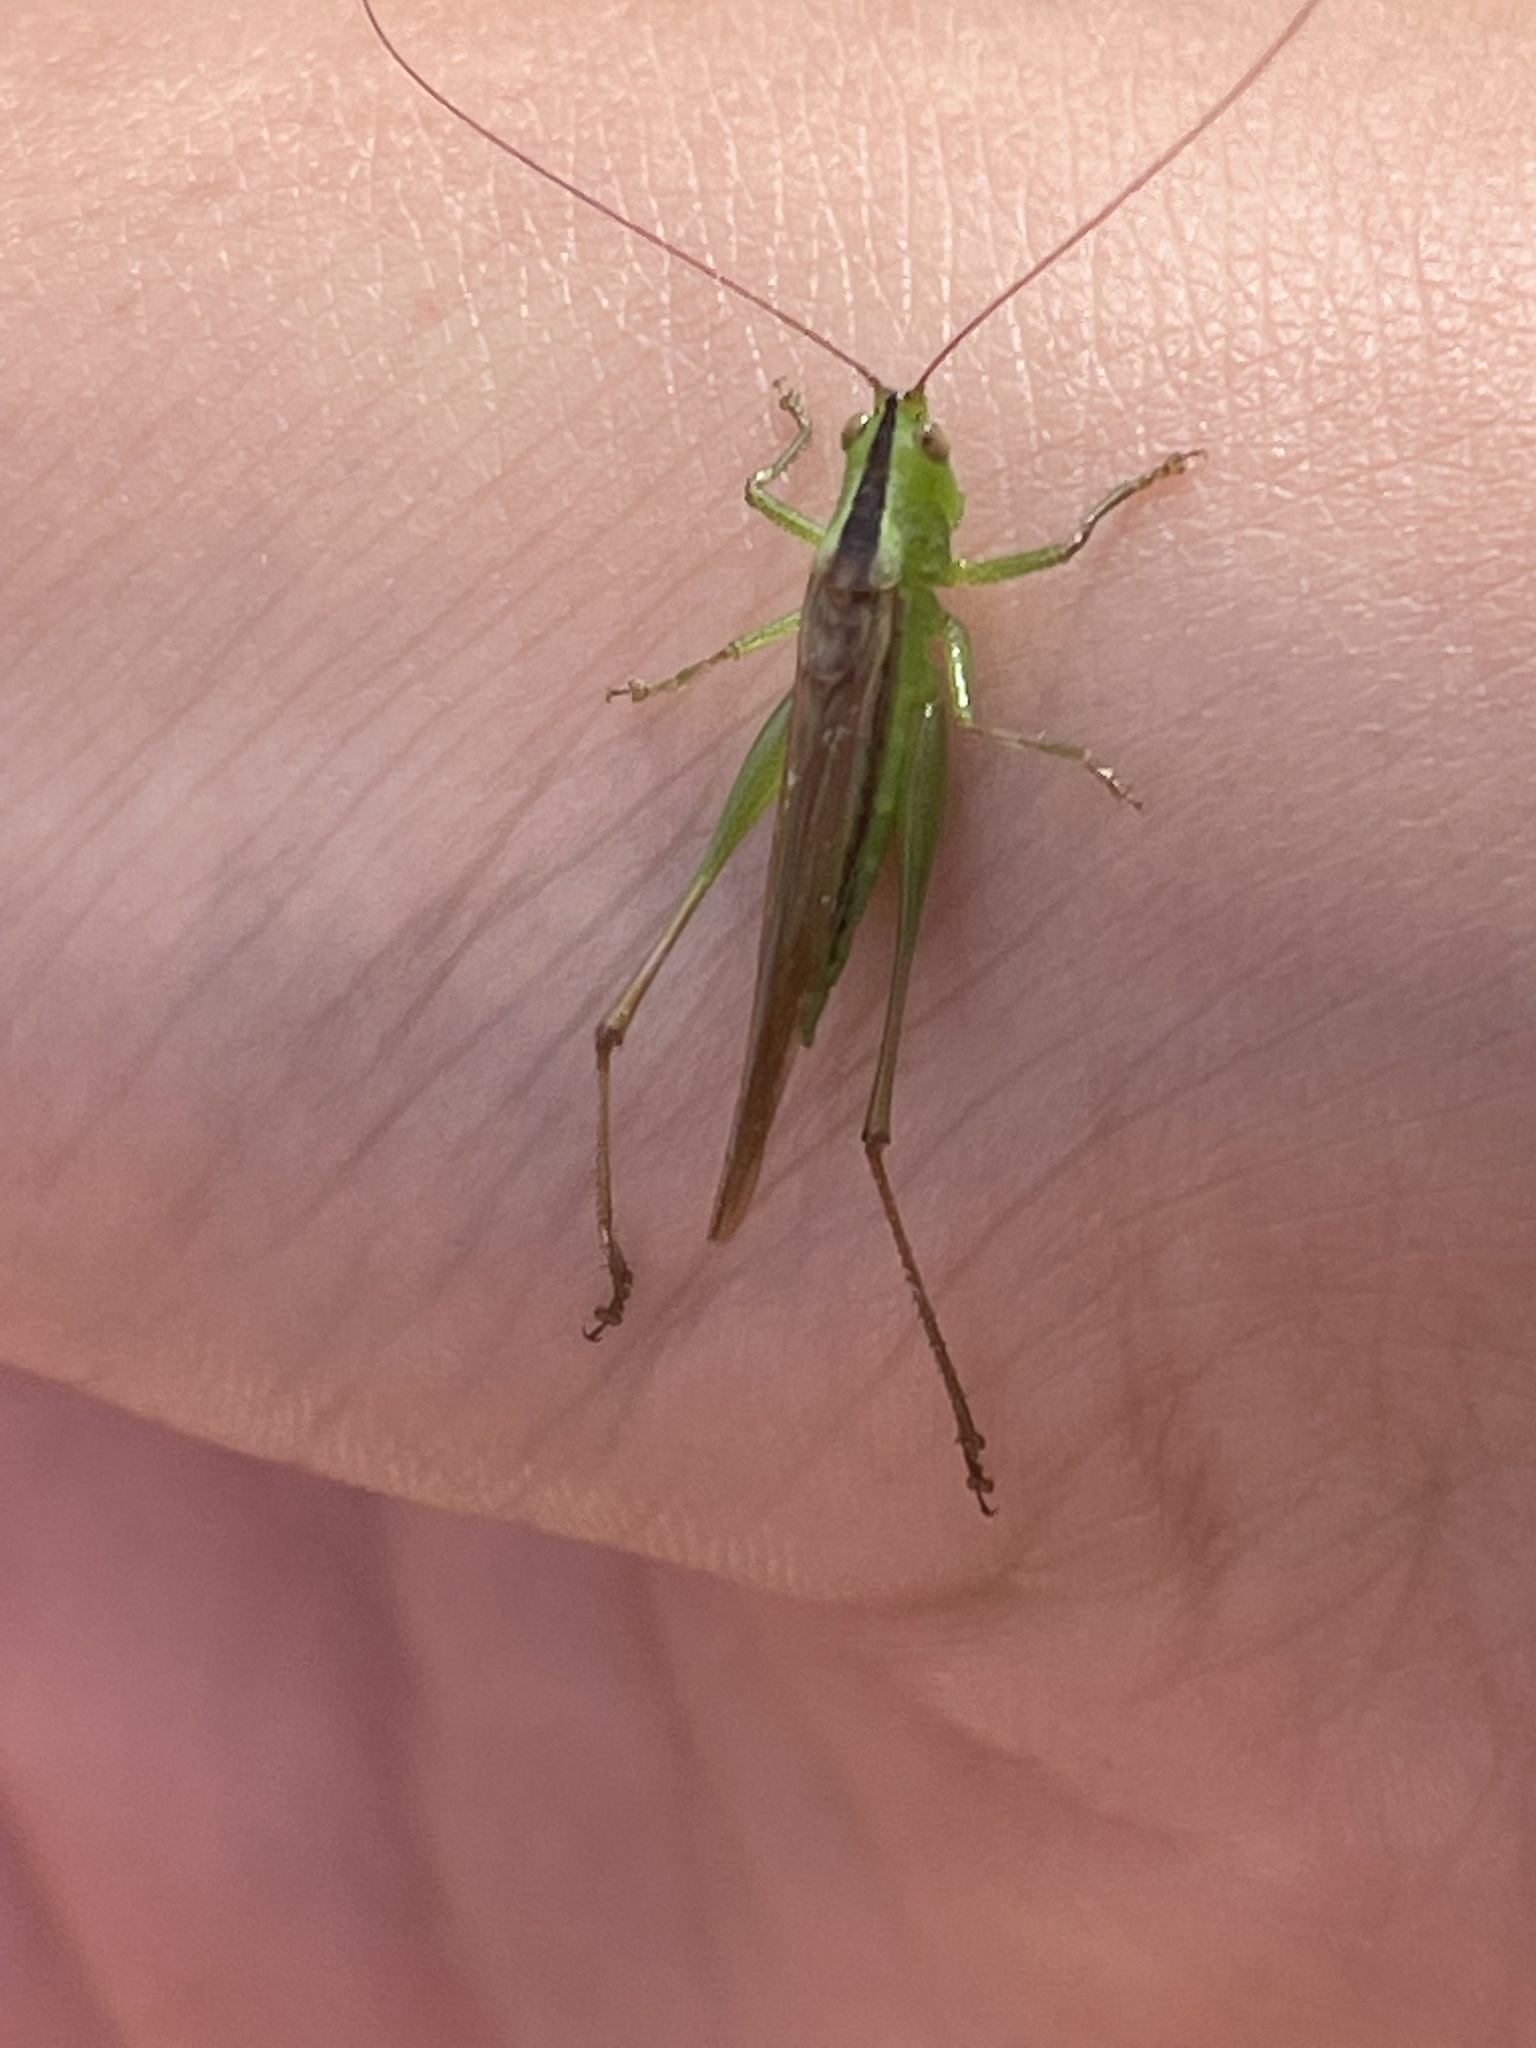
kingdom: Animalia
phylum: Arthropoda
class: Insecta
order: Orthoptera
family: Tettigoniidae
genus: Conocephalus
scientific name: Conocephalus fasciatus
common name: Slender meadow katydid
